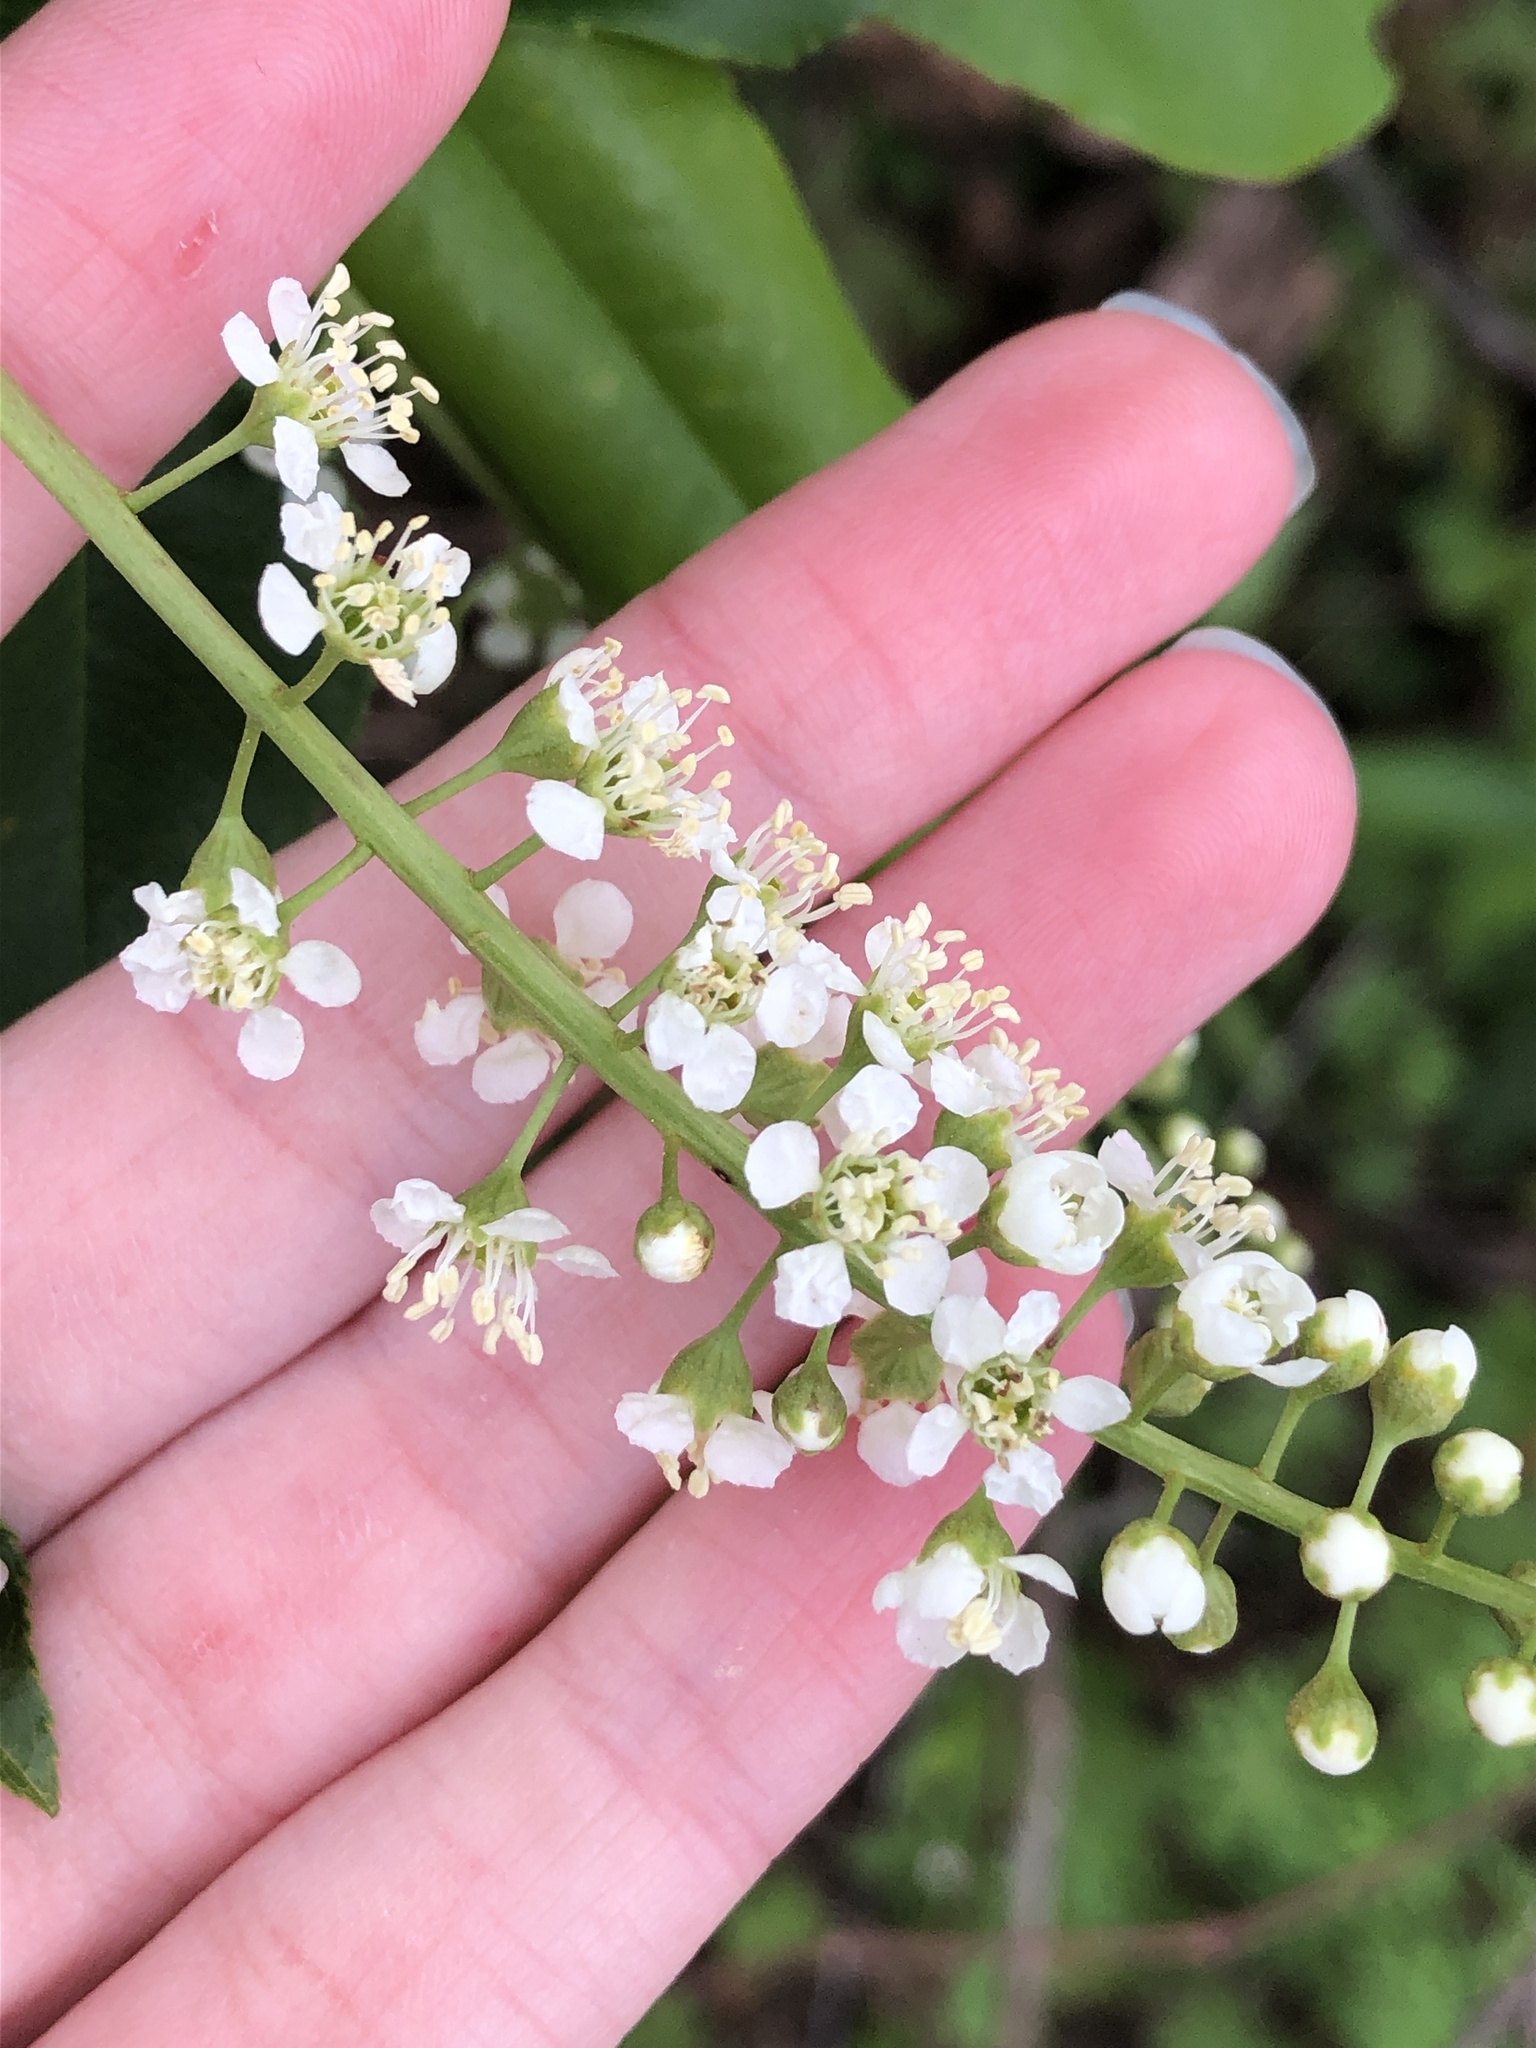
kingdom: Plantae
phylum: Tracheophyta
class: Magnoliopsida
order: Rosales
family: Rosaceae
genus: Prunus
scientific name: Prunus serotina
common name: Black cherry
